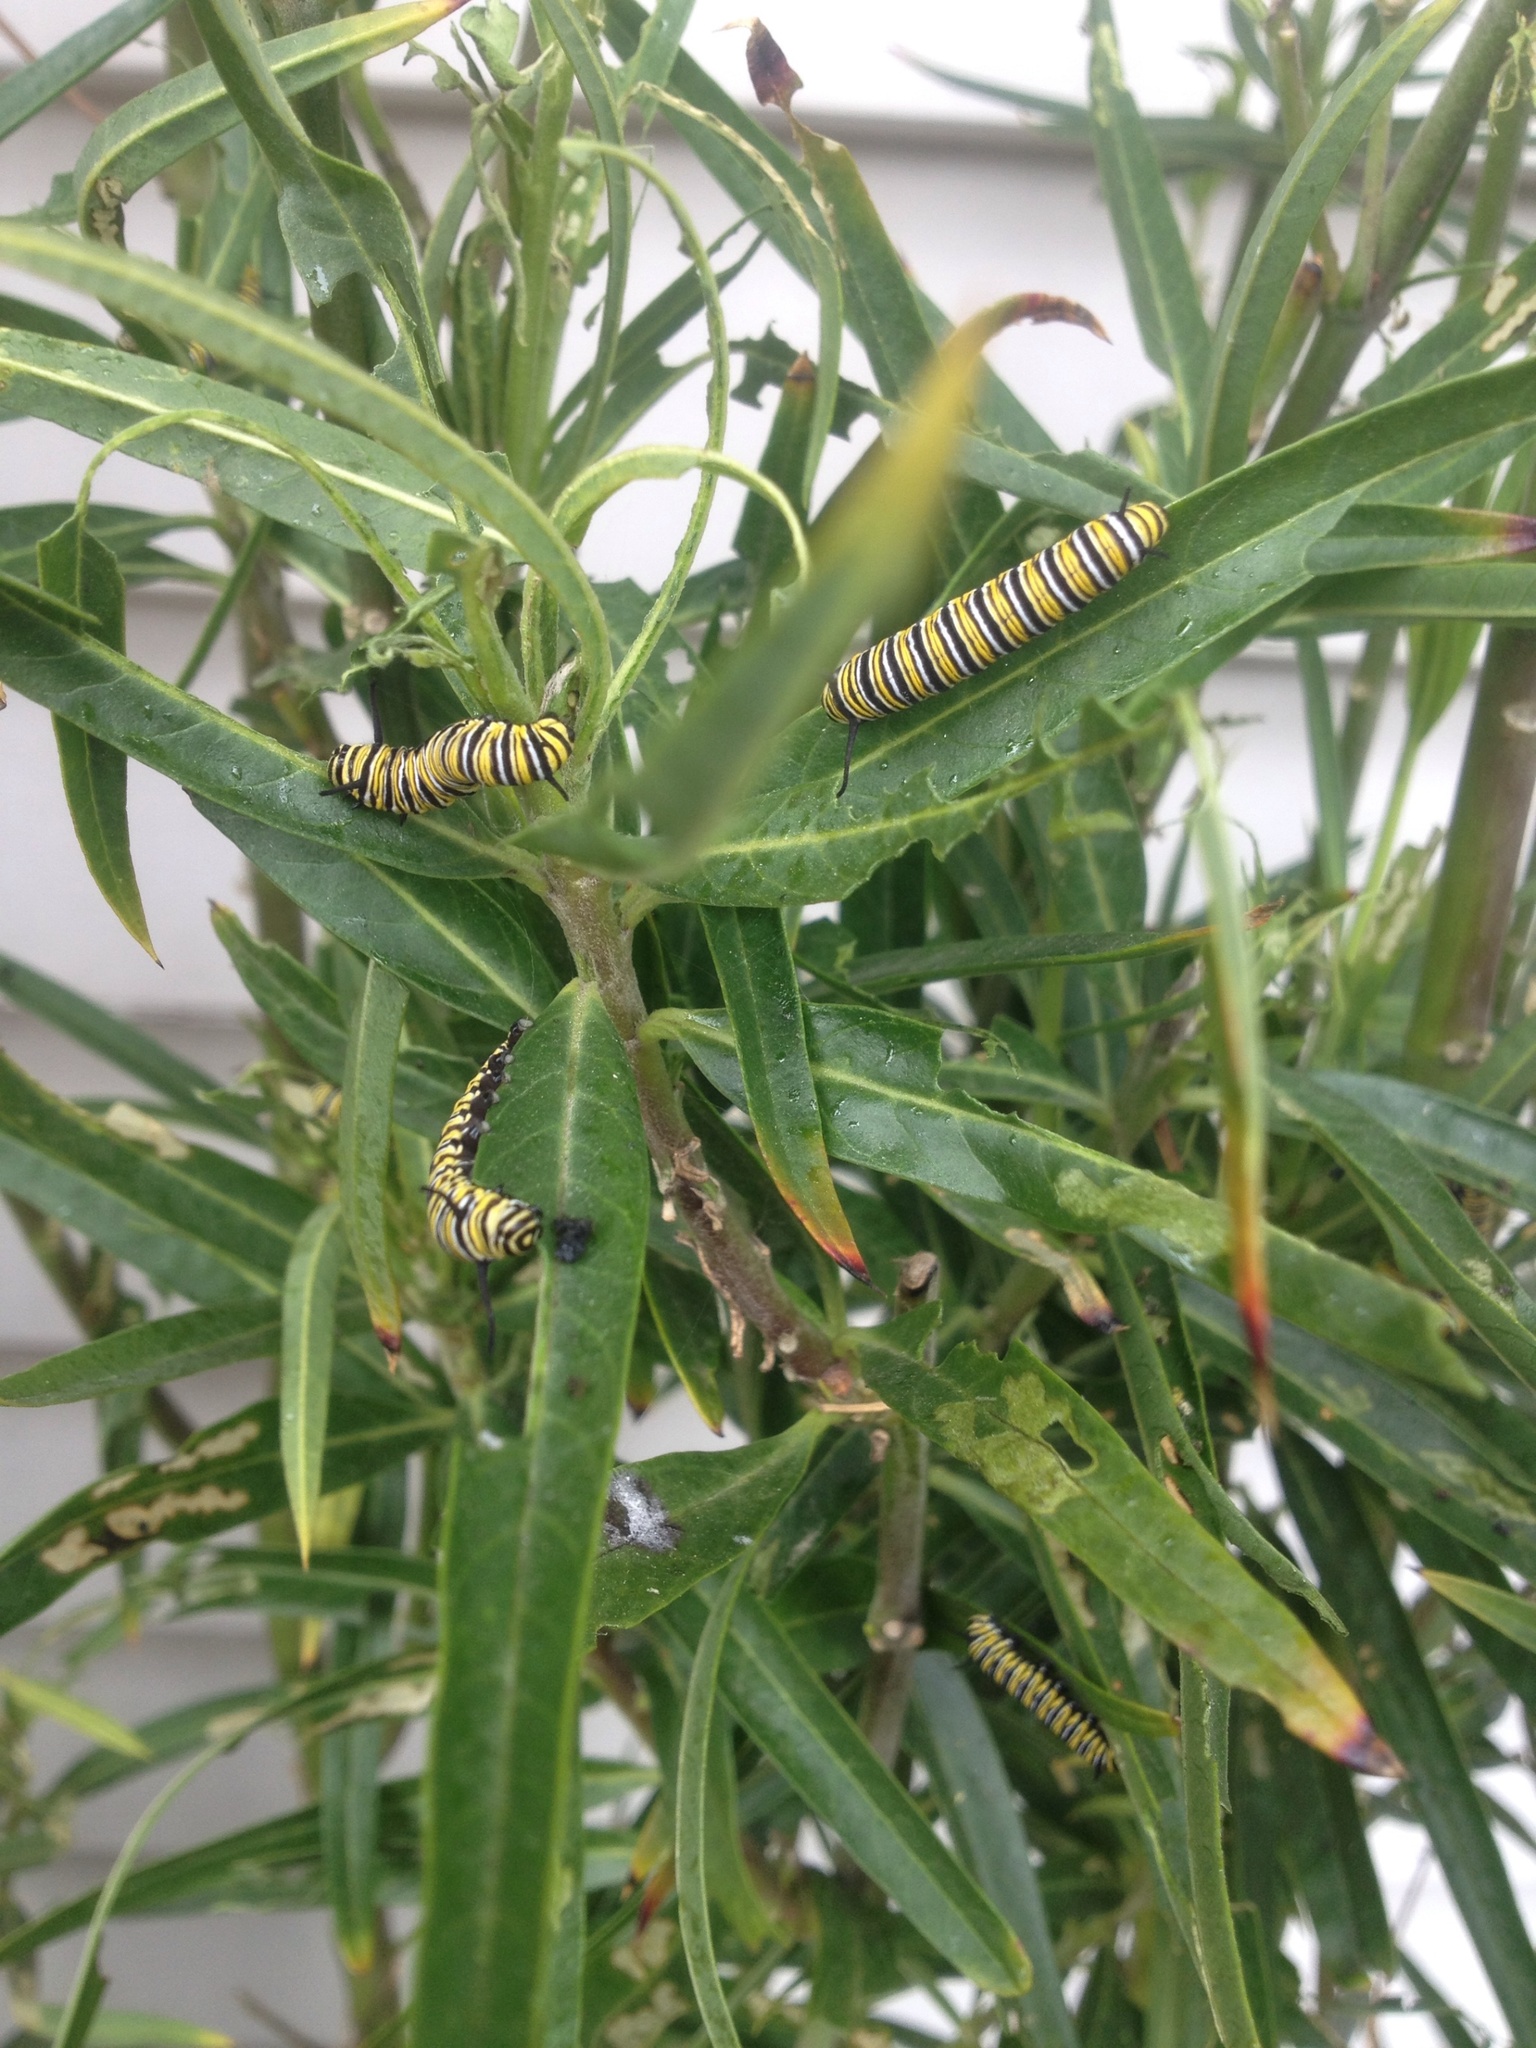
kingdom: Animalia
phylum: Arthropoda
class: Insecta
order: Lepidoptera
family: Nymphalidae
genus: Danaus
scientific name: Danaus plexippus
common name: Monarch
